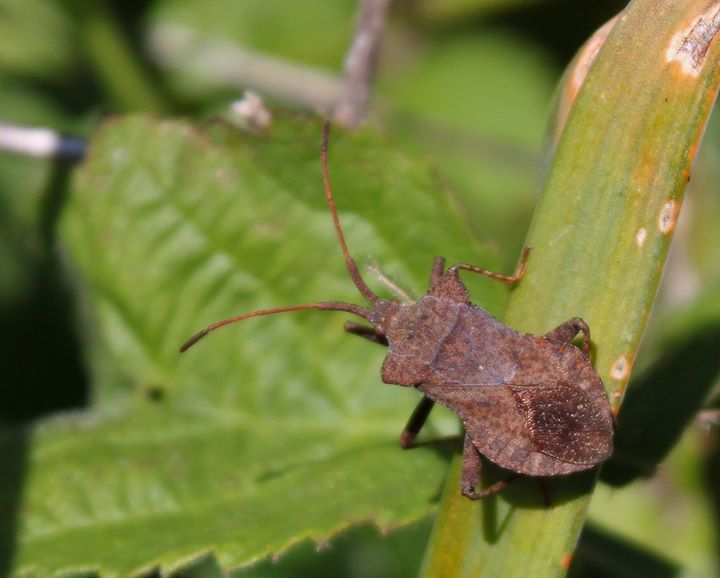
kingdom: Animalia
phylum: Arthropoda
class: Insecta
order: Hemiptera
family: Coreidae
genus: Coreus
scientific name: Coreus marginatus
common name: Dock bug
